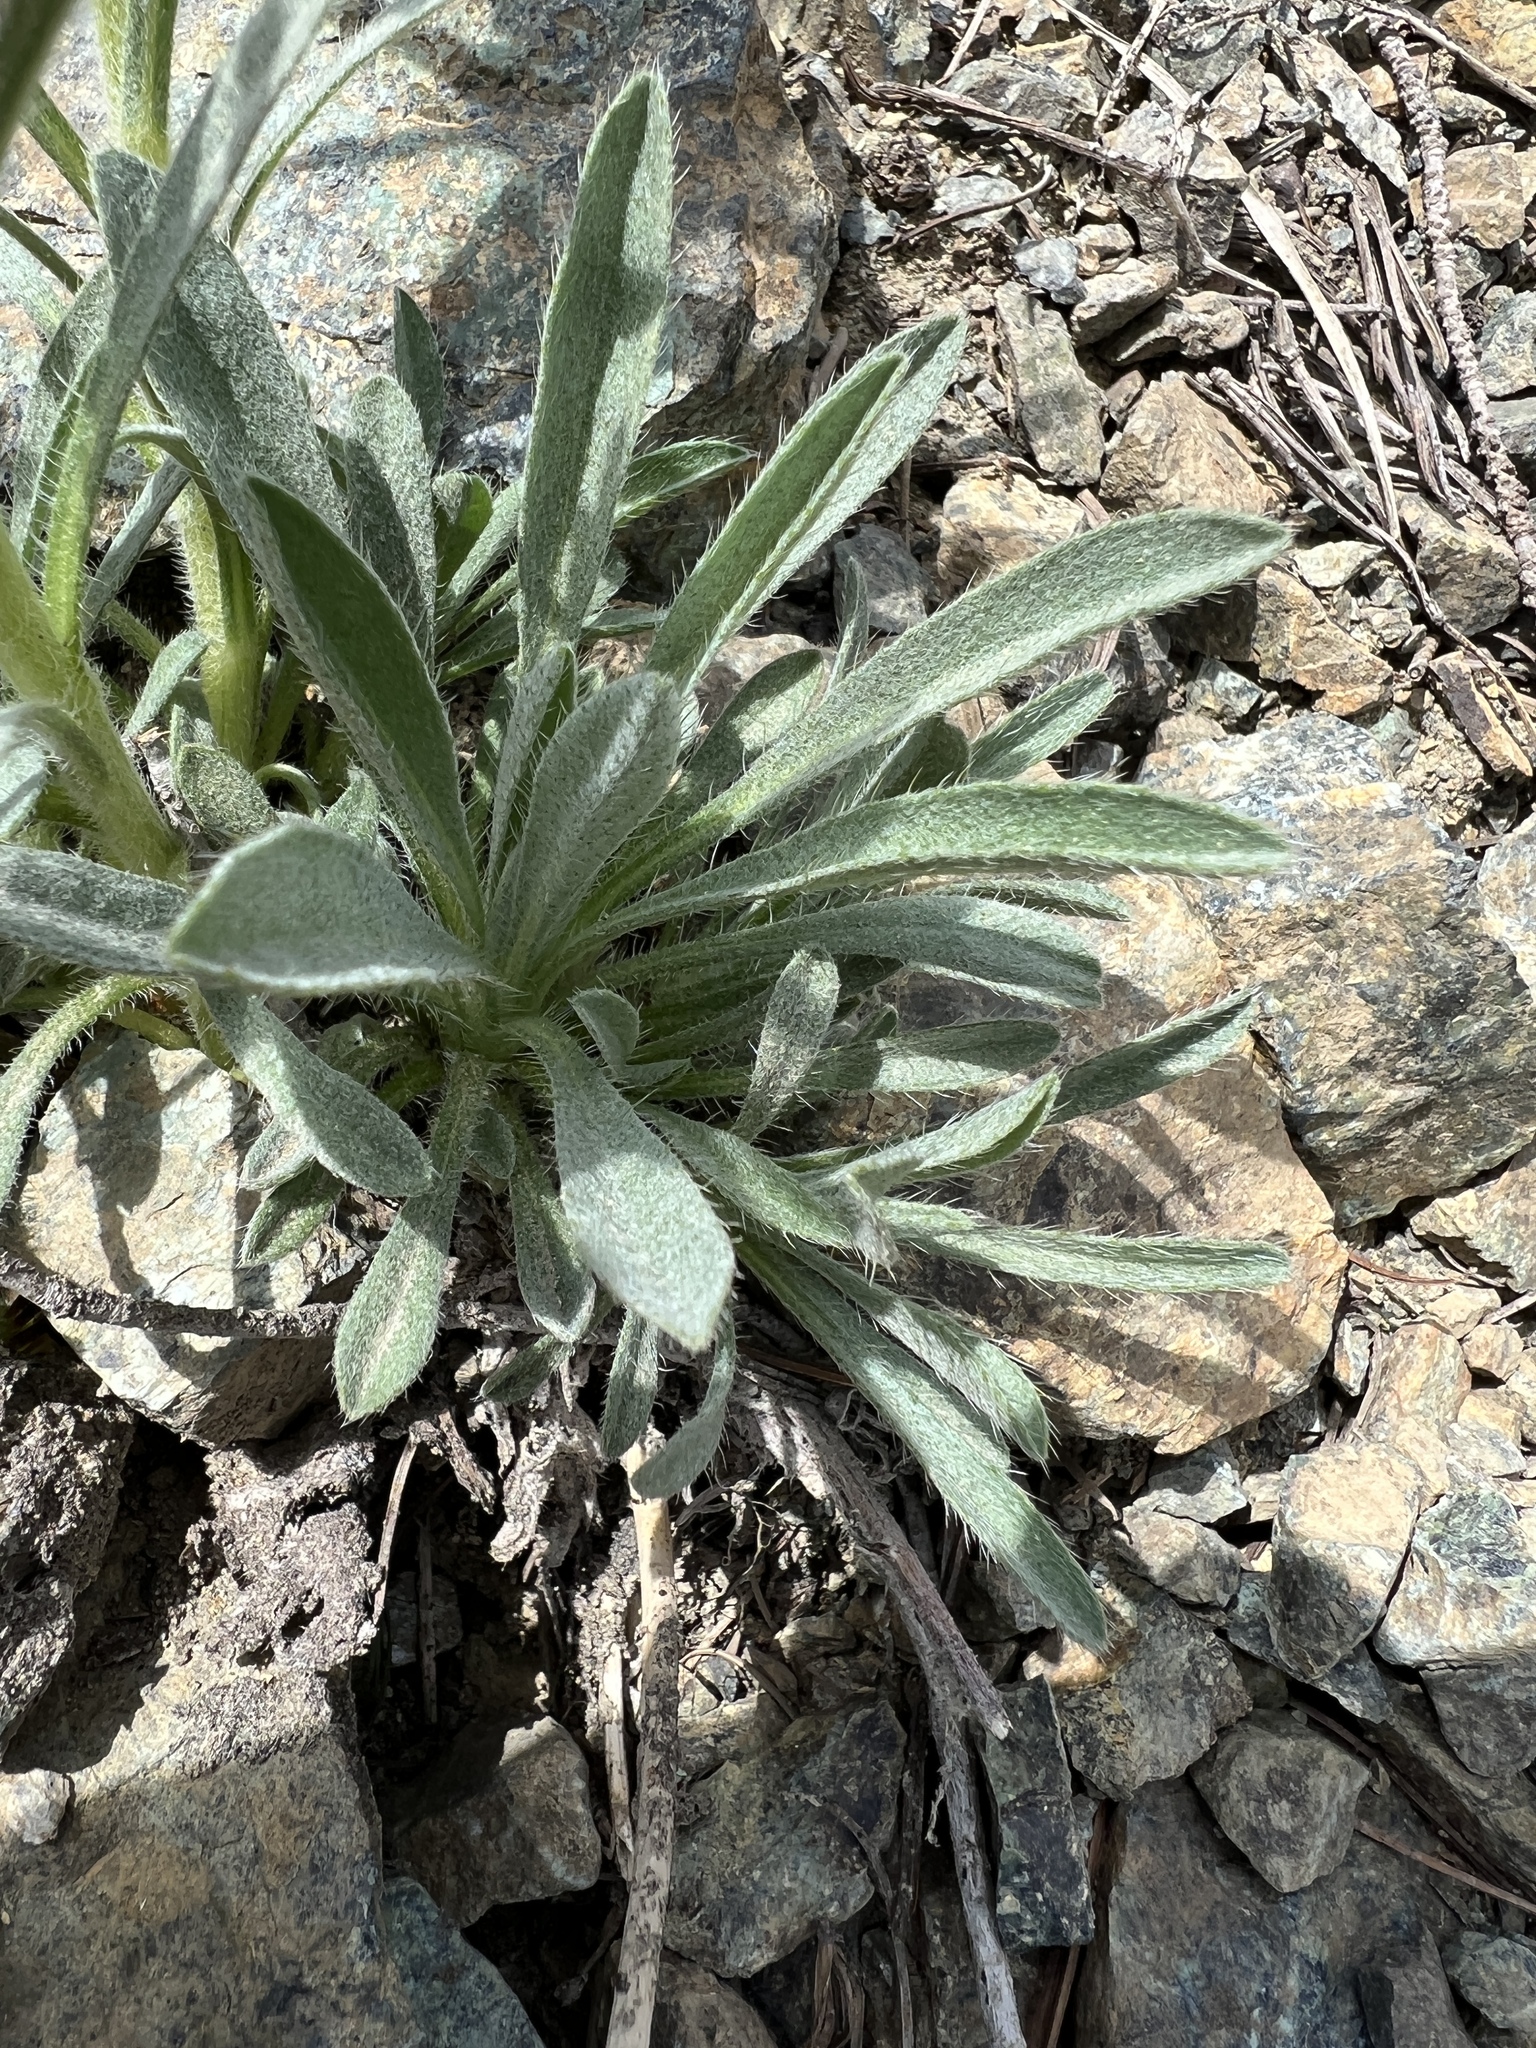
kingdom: Plantae
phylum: Tracheophyta
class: Magnoliopsida
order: Boraginales
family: Boraginaceae
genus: Oreocarya
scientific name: Oreocarya thompsonii
